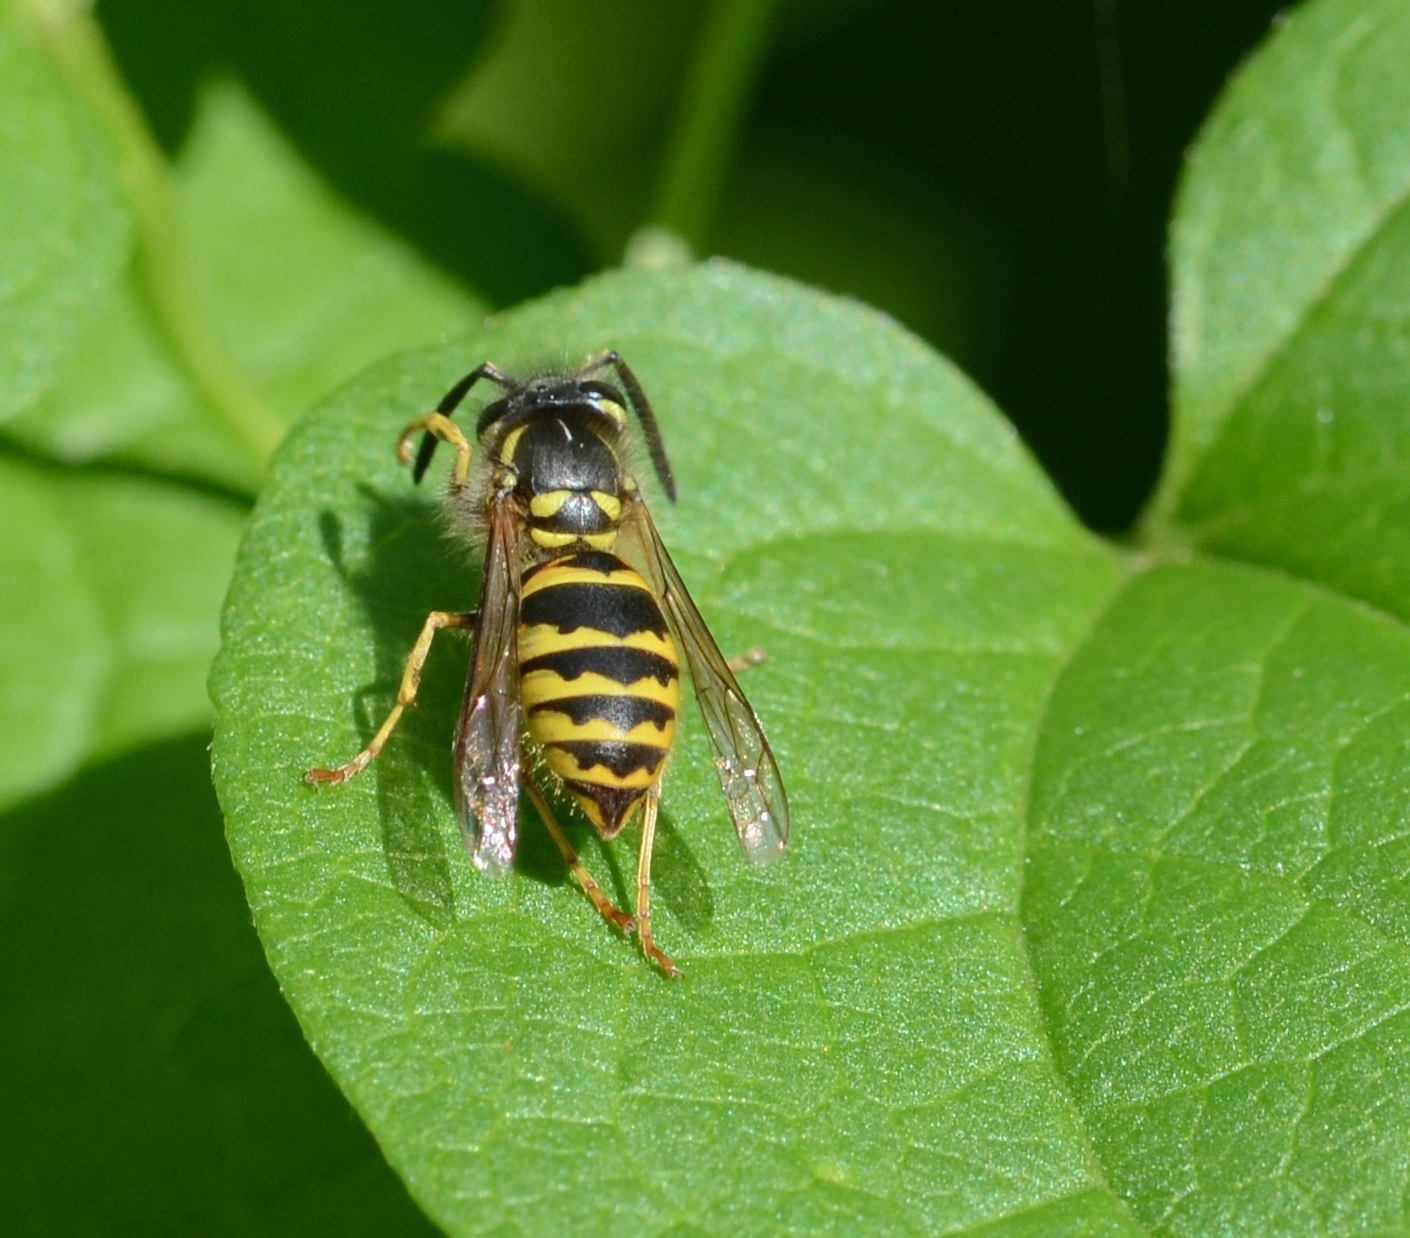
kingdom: Animalia
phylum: Arthropoda
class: Insecta
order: Hymenoptera
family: Vespidae
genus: Vespula
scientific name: Vespula vulgaris
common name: Common wasp
